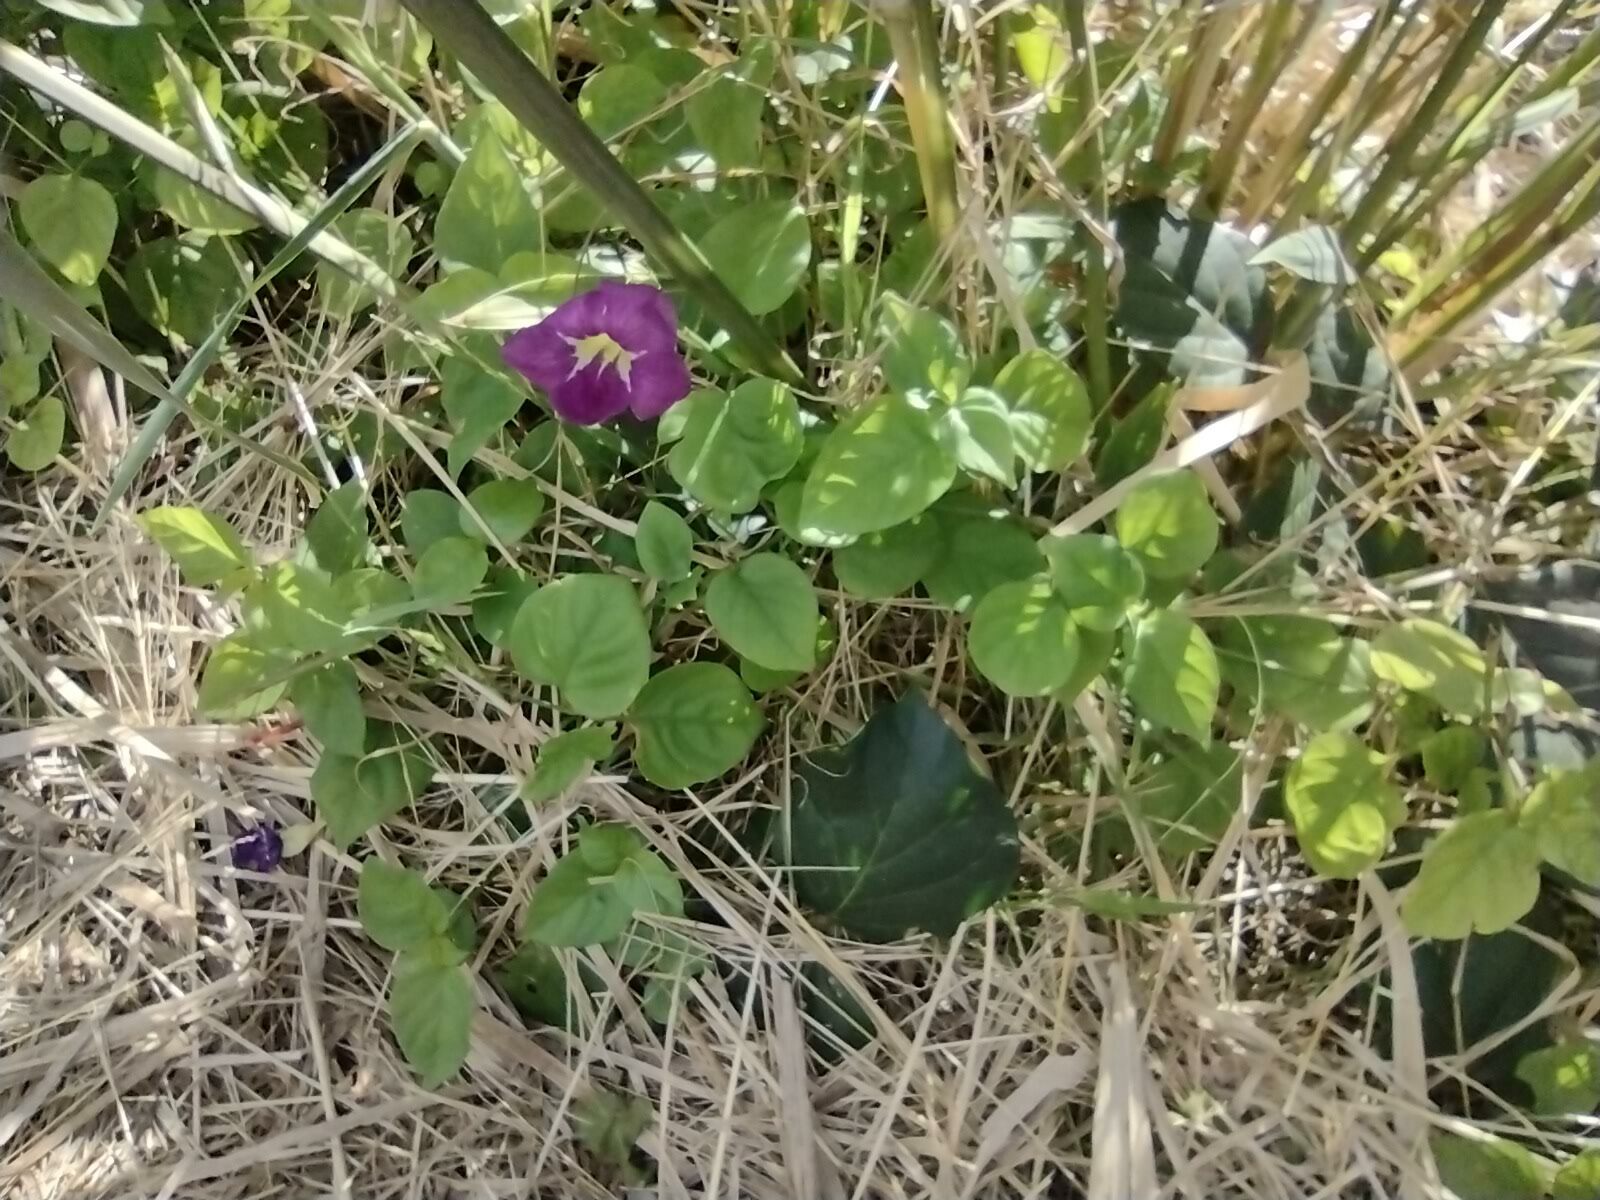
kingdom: Plantae
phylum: Tracheophyta
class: Magnoliopsida
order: Lamiales
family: Acanthaceae
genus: Asystasia
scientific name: Asystasia gangetica
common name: Chinese violet
